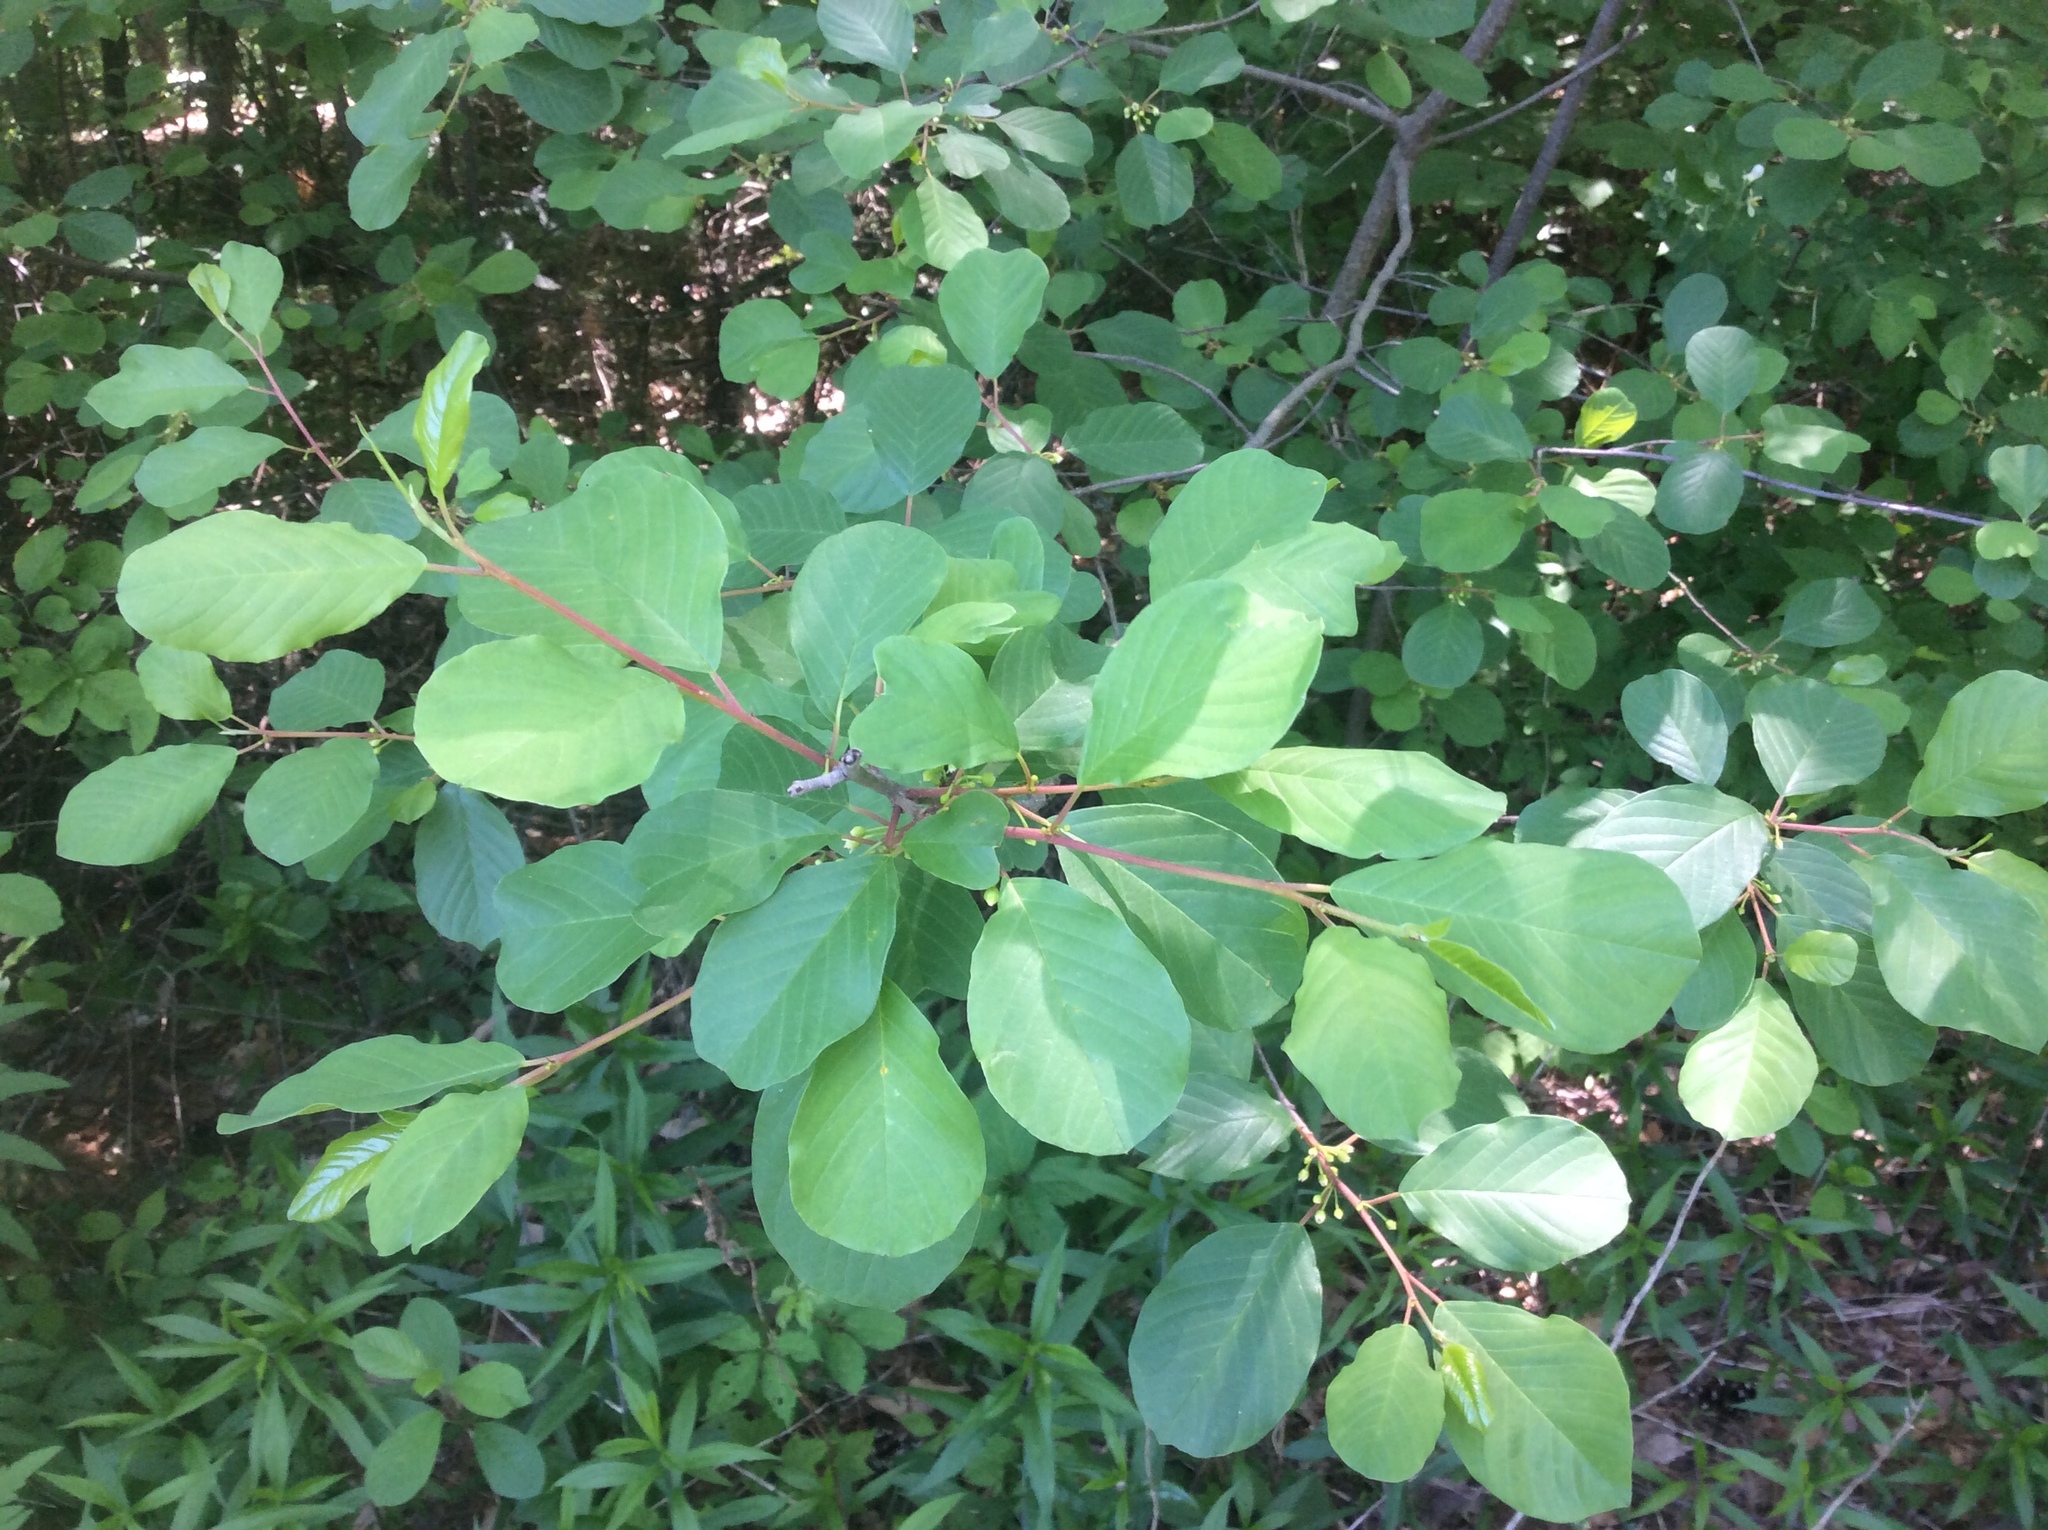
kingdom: Plantae
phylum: Tracheophyta
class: Magnoliopsida
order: Rosales
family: Rhamnaceae
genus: Frangula
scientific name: Frangula alnus
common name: Alder buckthorn
